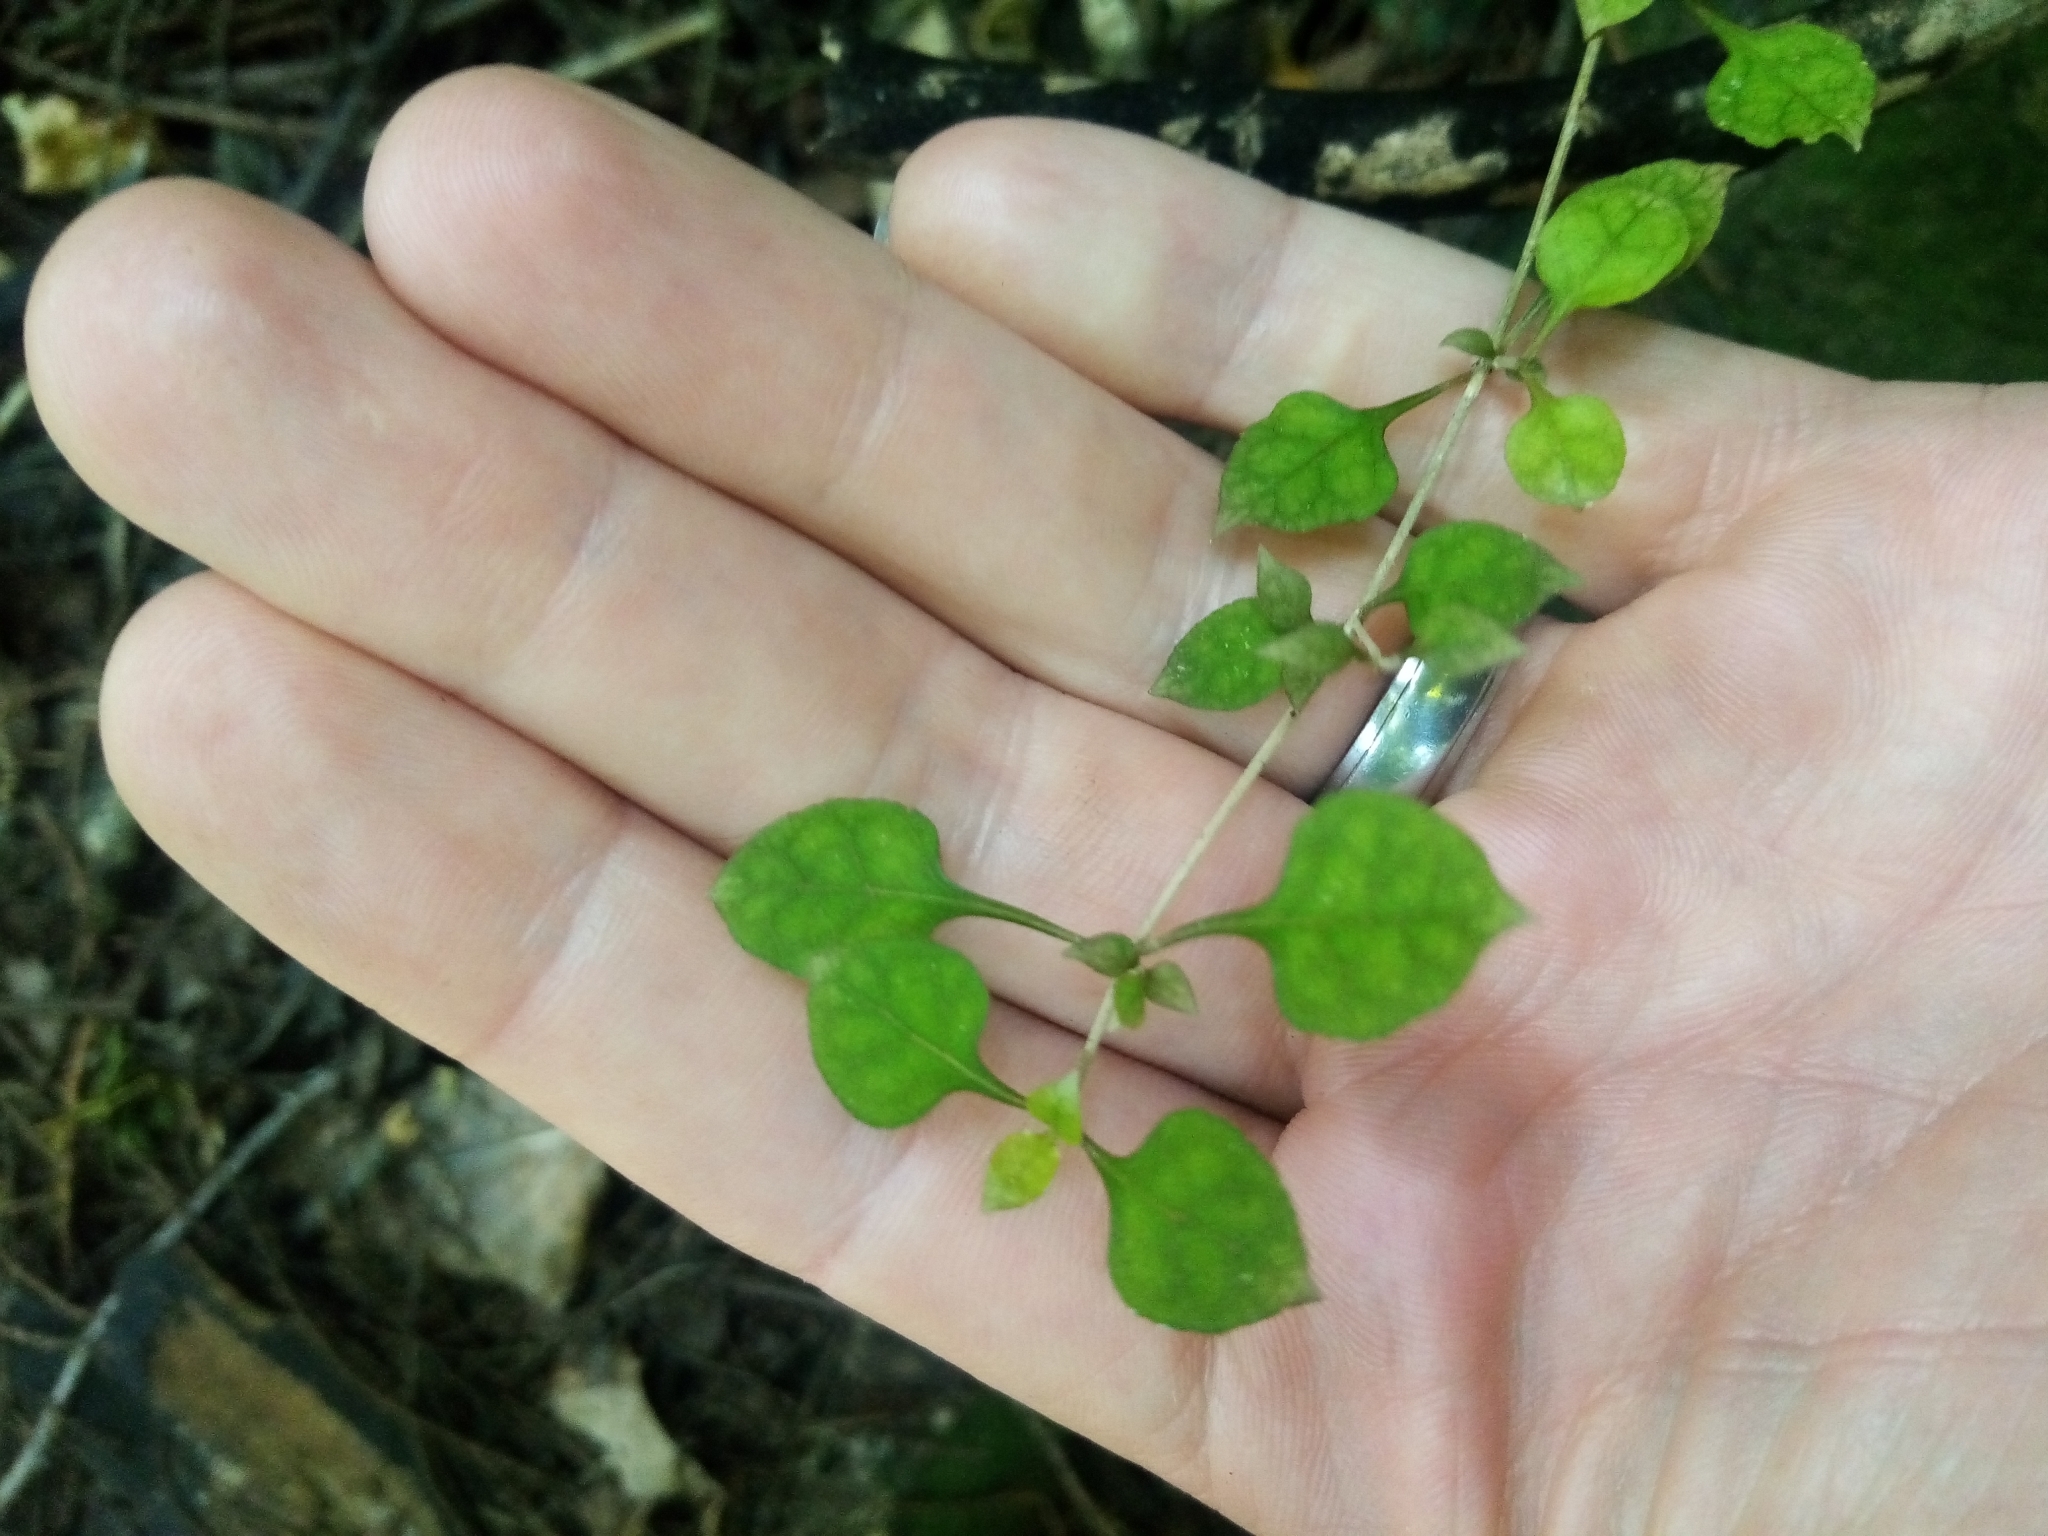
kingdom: Plantae
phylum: Tracheophyta
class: Magnoliopsida
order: Gentianales
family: Rubiaceae
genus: Coprosma
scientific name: Coprosma areolata
